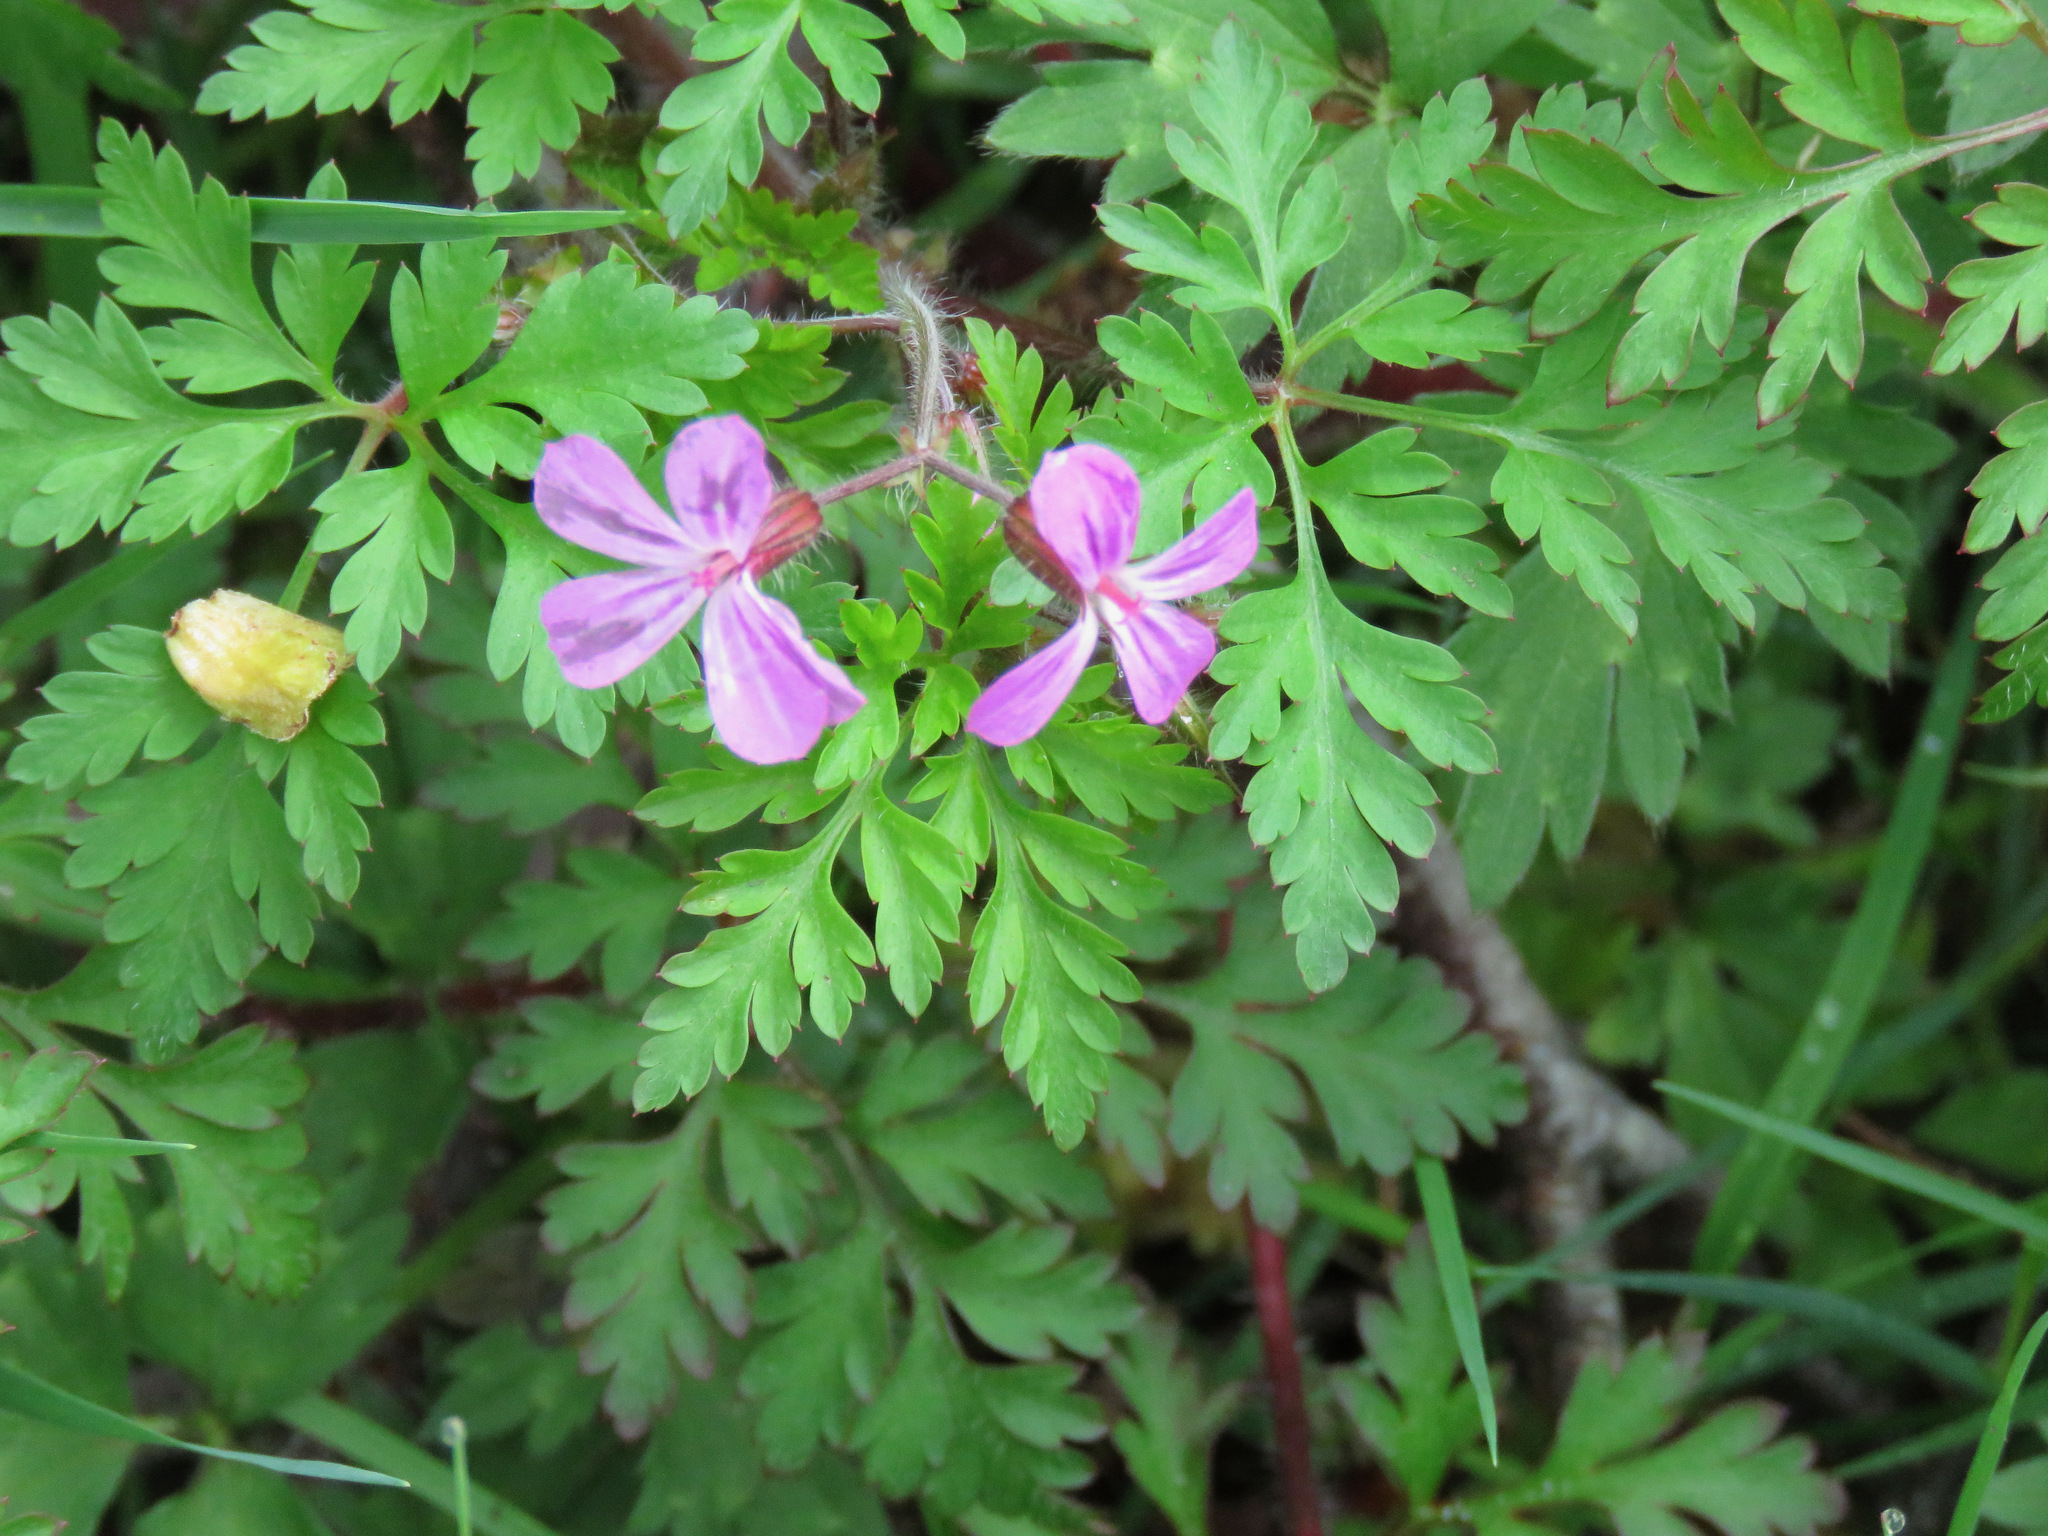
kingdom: Plantae
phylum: Tracheophyta
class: Magnoliopsida
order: Geraniales
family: Geraniaceae
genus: Geranium
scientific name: Geranium robertianum
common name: Herb-robert
